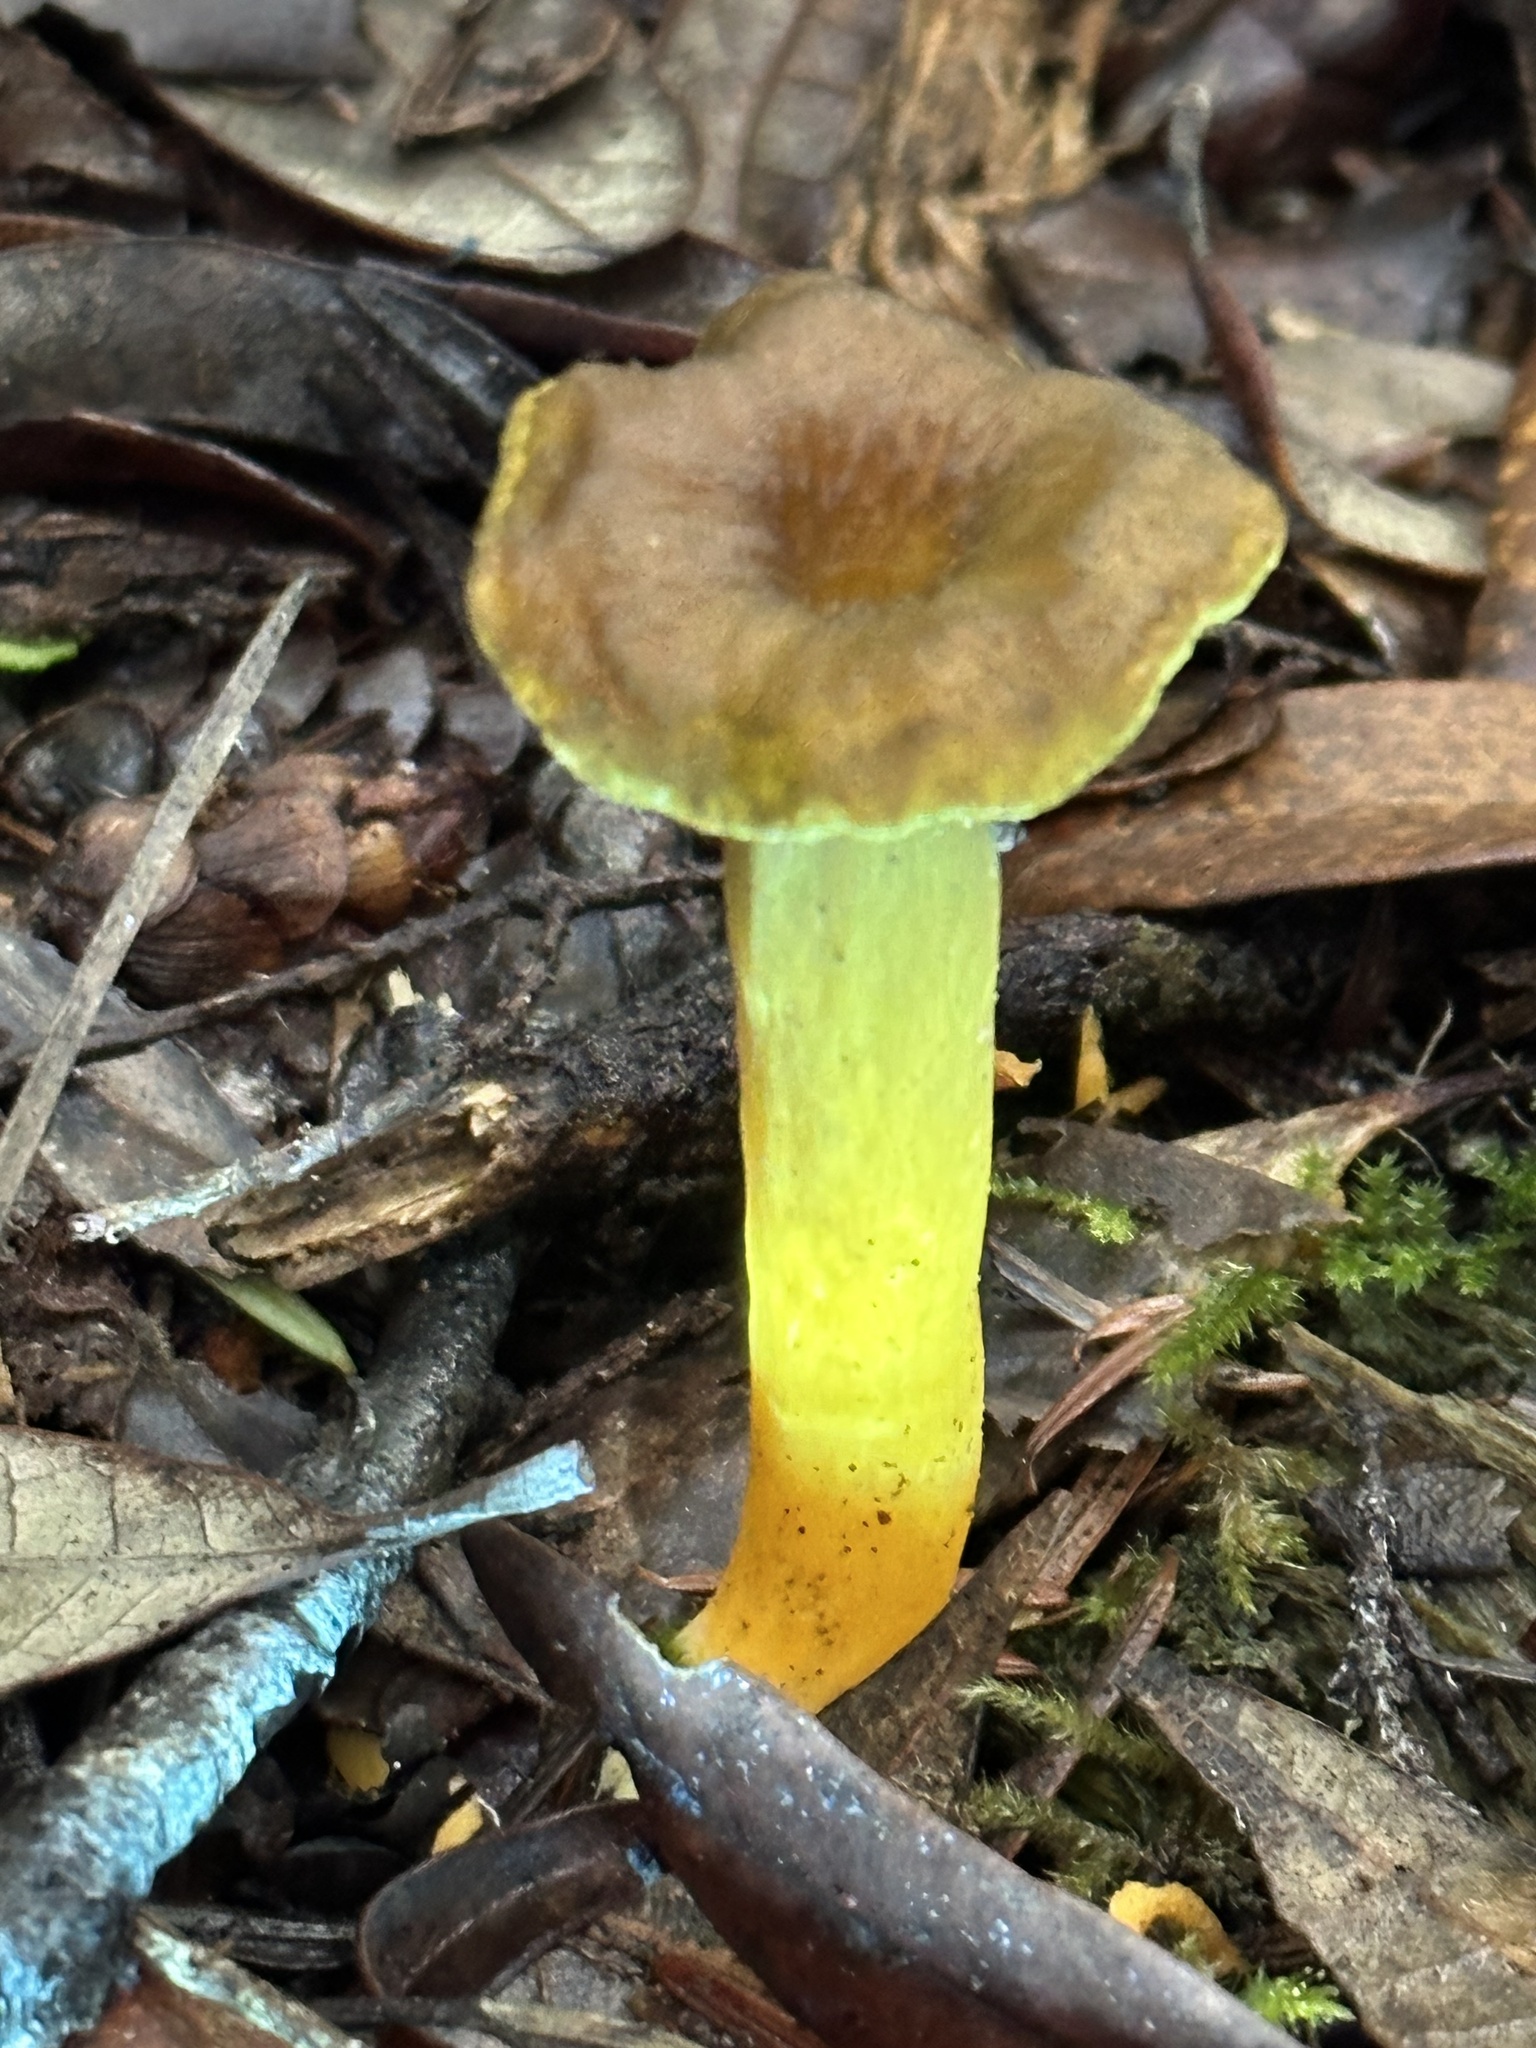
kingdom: Fungi
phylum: Basidiomycota
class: Agaricomycetes
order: Cantharellales
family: Hydnaceae
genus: Craterellus
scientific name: Craterellus tubaeformis
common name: Yellowfoot
